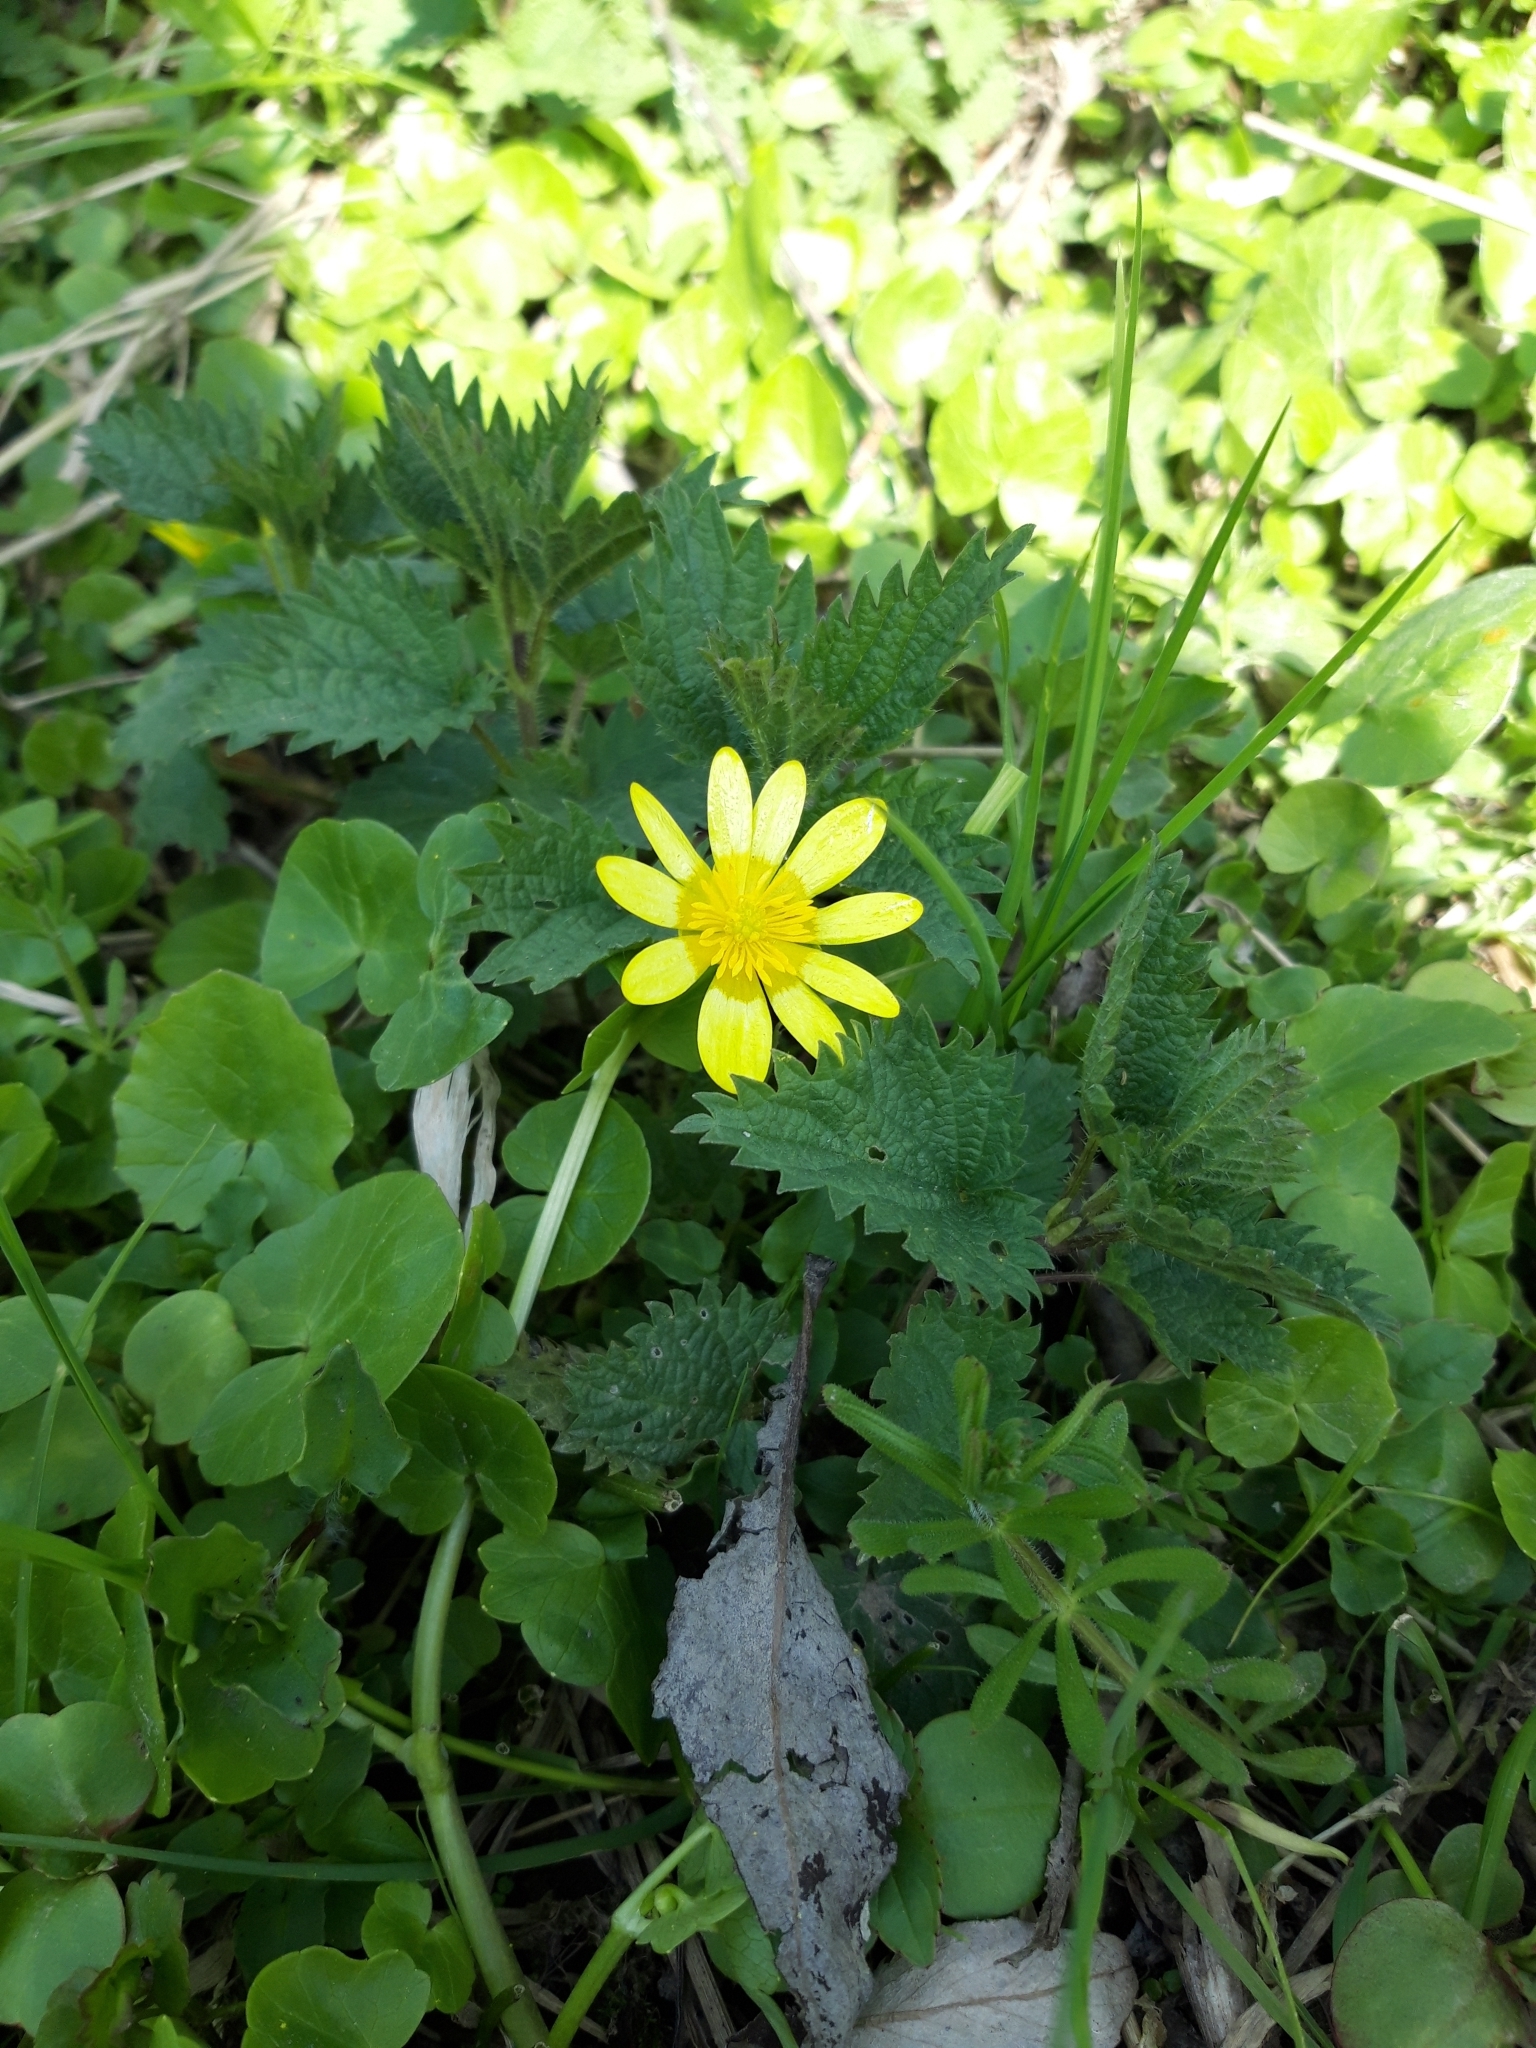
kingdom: Plantae
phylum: Tracheophyta
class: Magnoliopsida
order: Ranunculales
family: Ranunculaceae
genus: Ficaria
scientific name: Ficaria verna
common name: Lesser celandine
